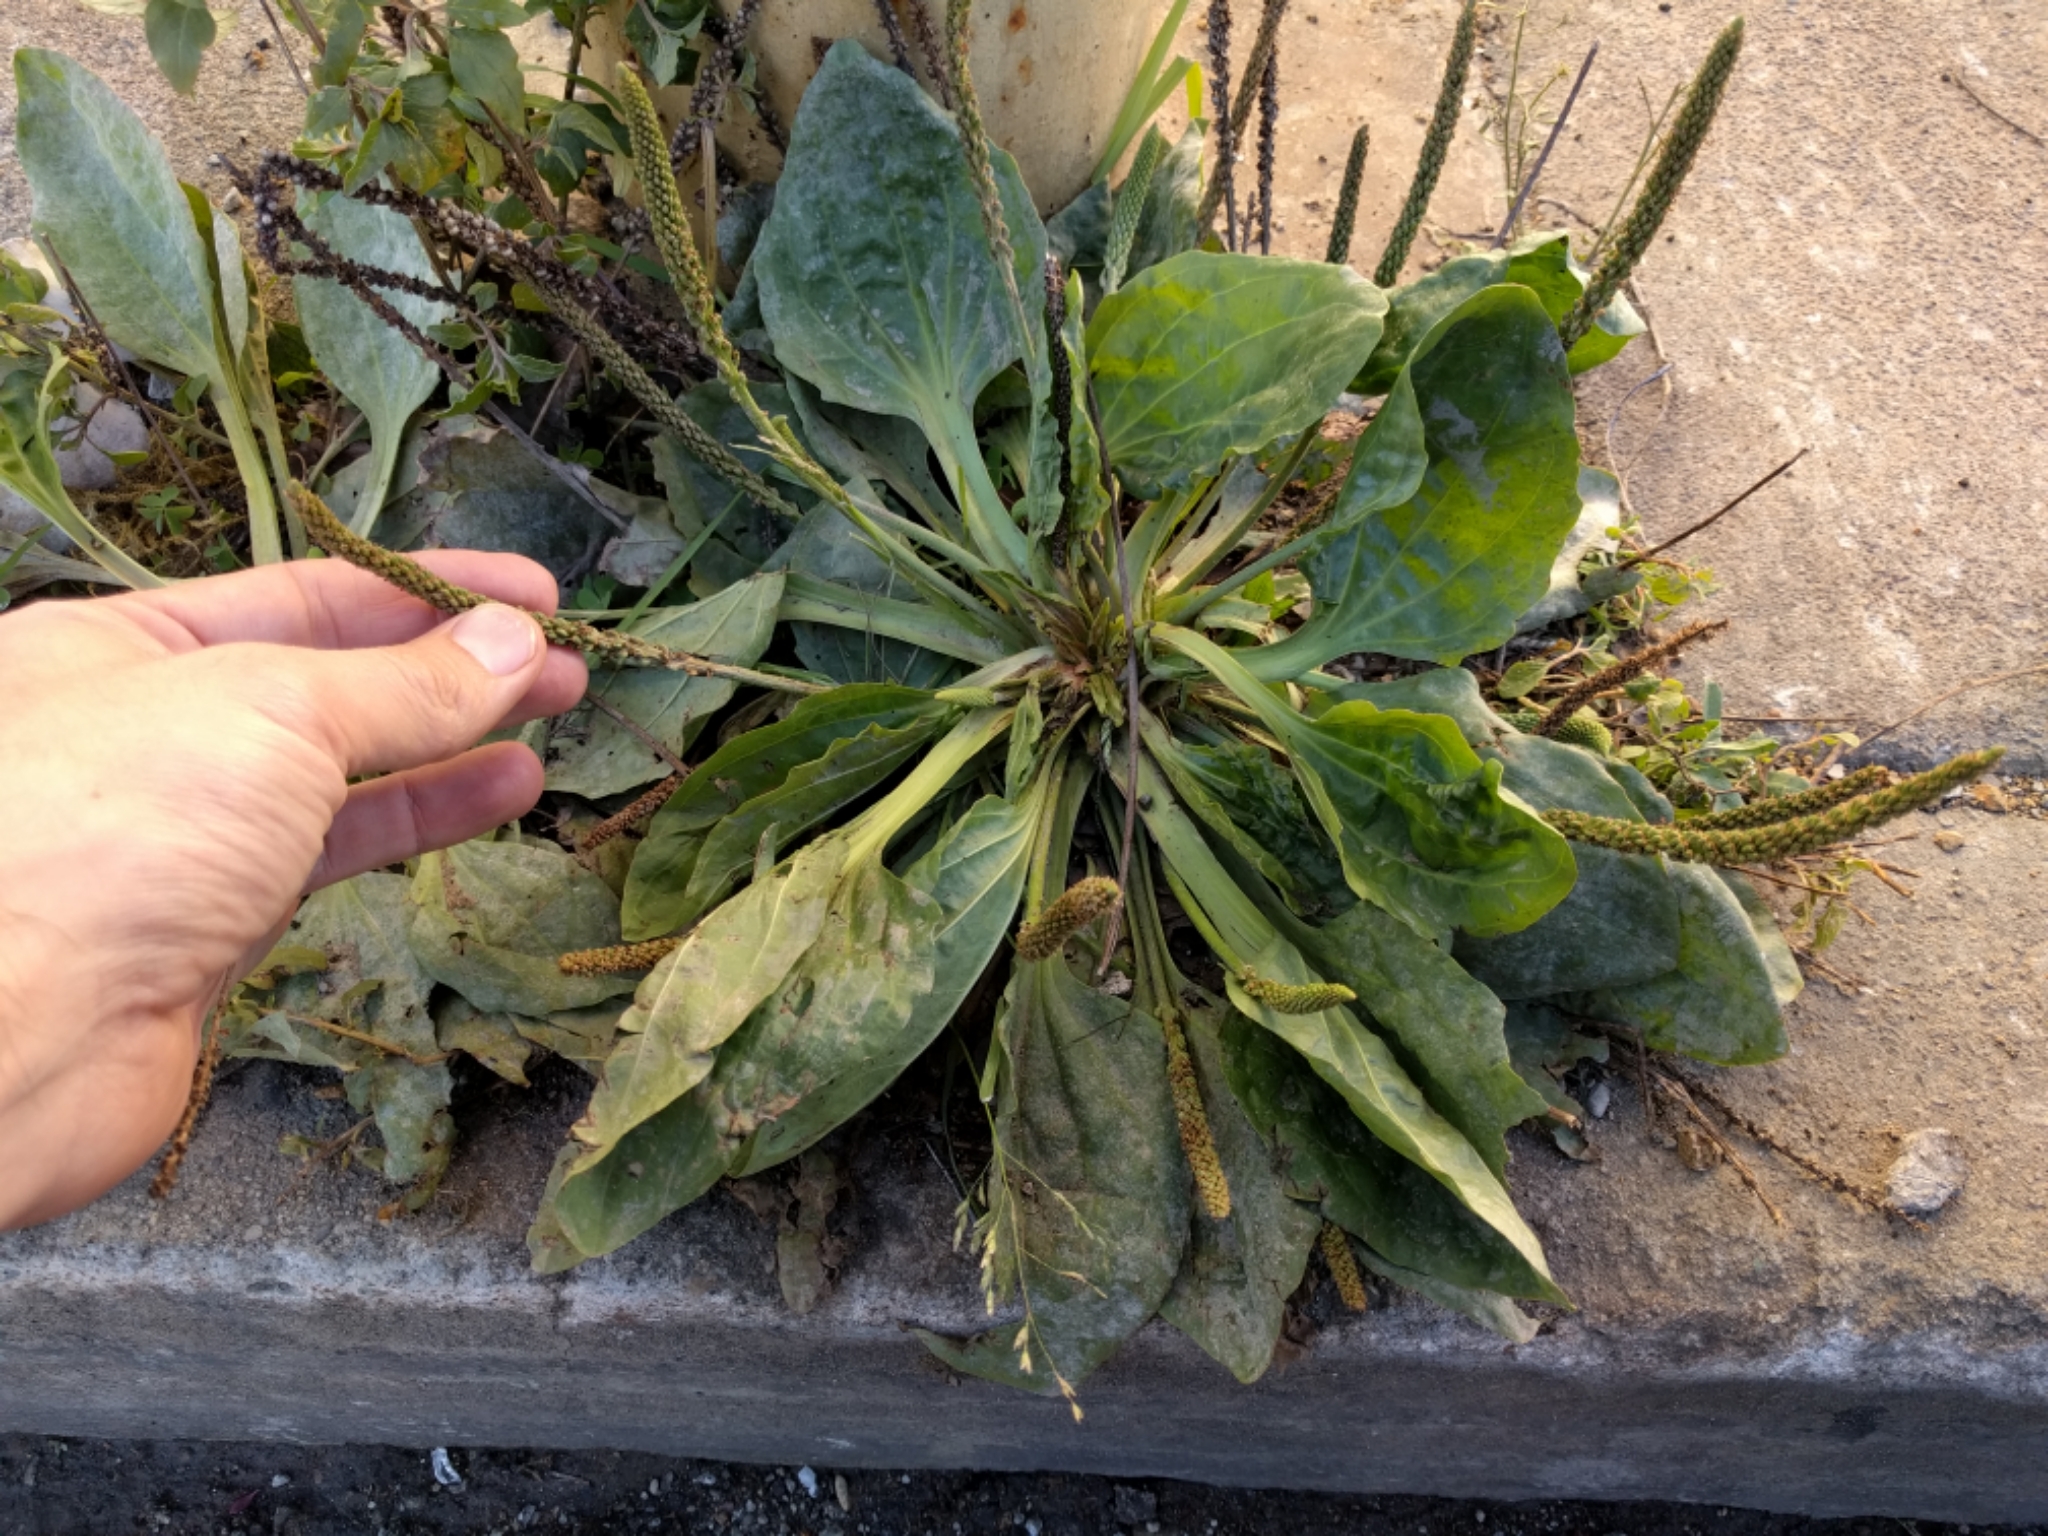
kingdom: Plantae
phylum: Tracheophyta
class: Magnoliopsida
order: Lamiales
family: Plantaginaceae
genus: Plantago
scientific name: Plantago major
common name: Common plantain
